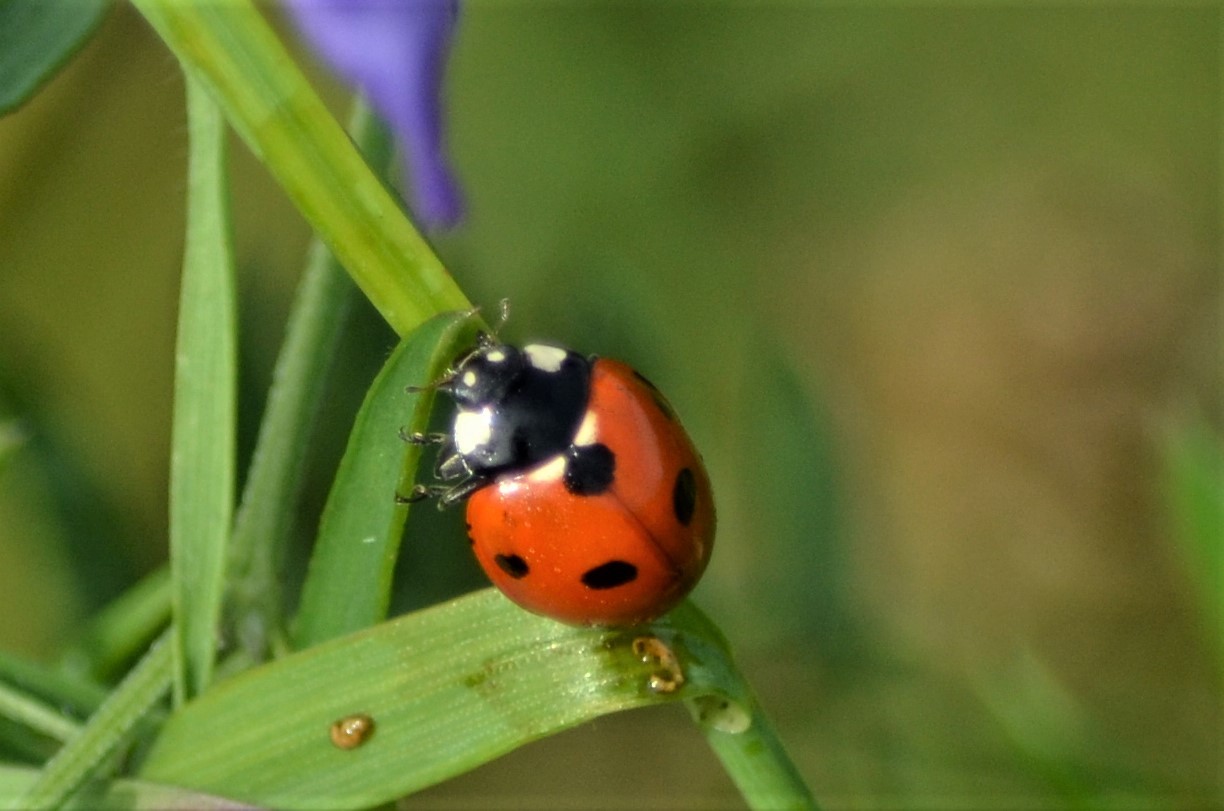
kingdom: Animalia
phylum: Arthropoda
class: Insecta
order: Coleoptera
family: Coccinellidae
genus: Coccinella
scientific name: Coccinella septempunctata
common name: Sevenspotted lady beetle
